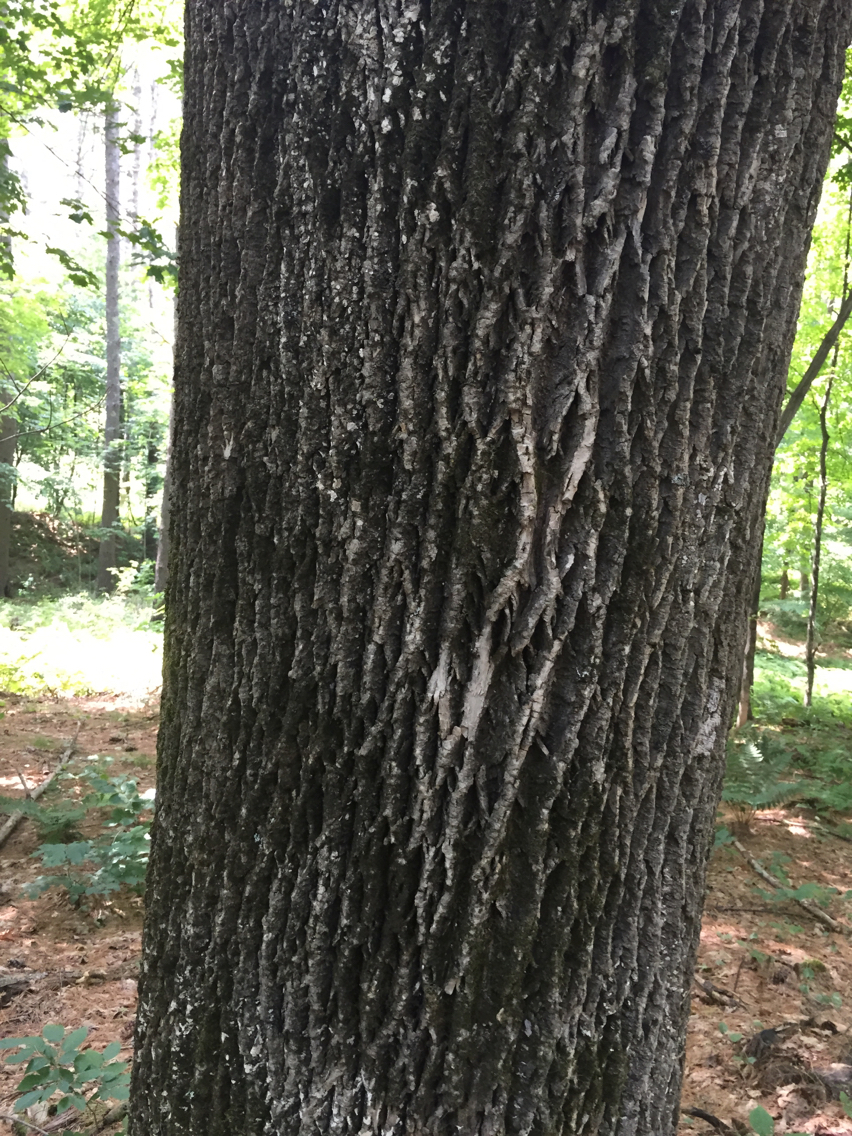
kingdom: Plantae
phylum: Tracheophyta
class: Magnoliopsida
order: Lamiales
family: Oleaceae
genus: Fraxinus
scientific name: Fraxinus americana
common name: White ash
